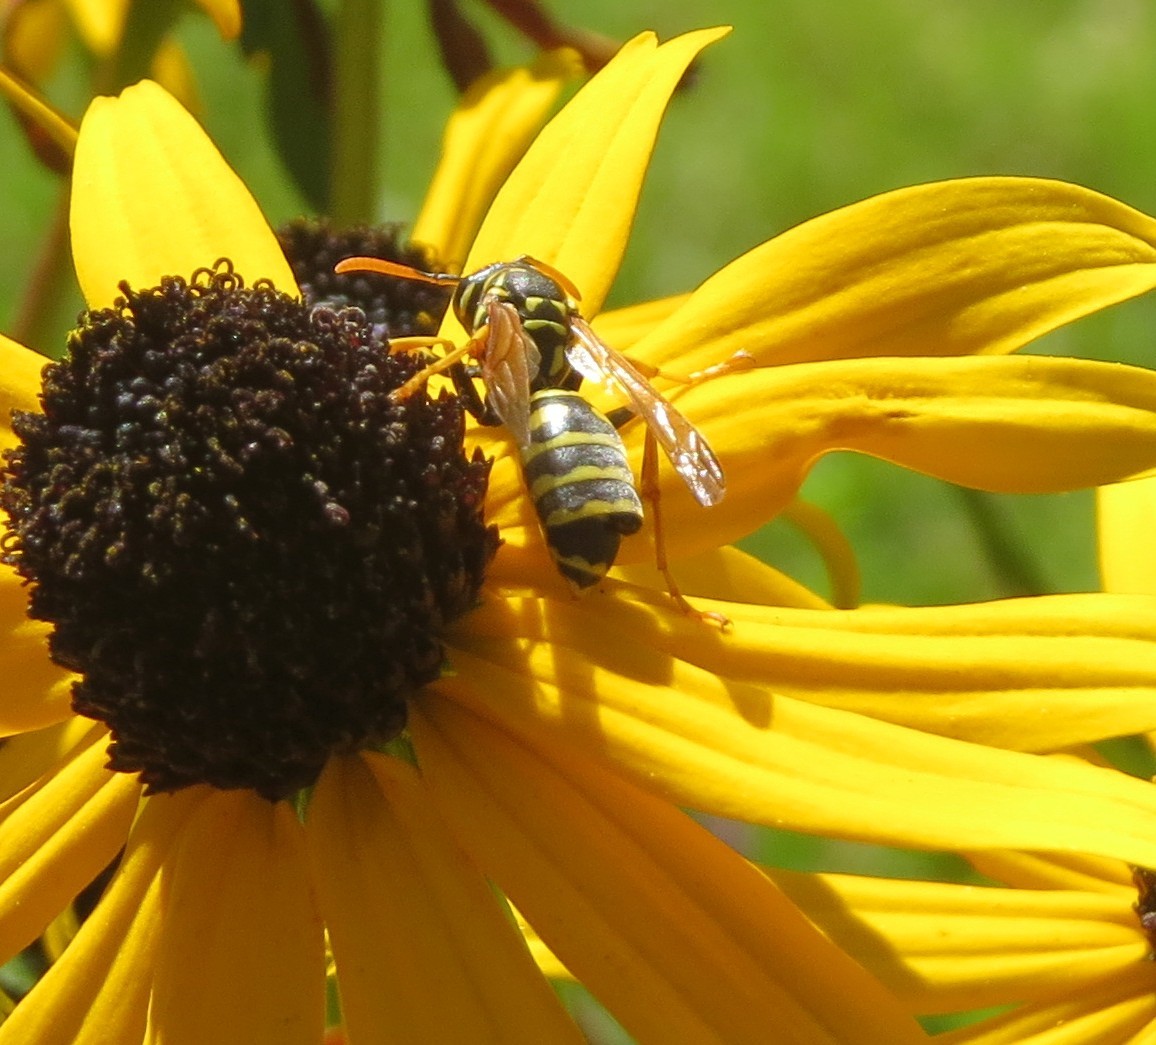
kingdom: Animalia
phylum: Arthropoda
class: Insecta
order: Strepsiptera
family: Xenidae
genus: Xenos
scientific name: Xenos vesparum
